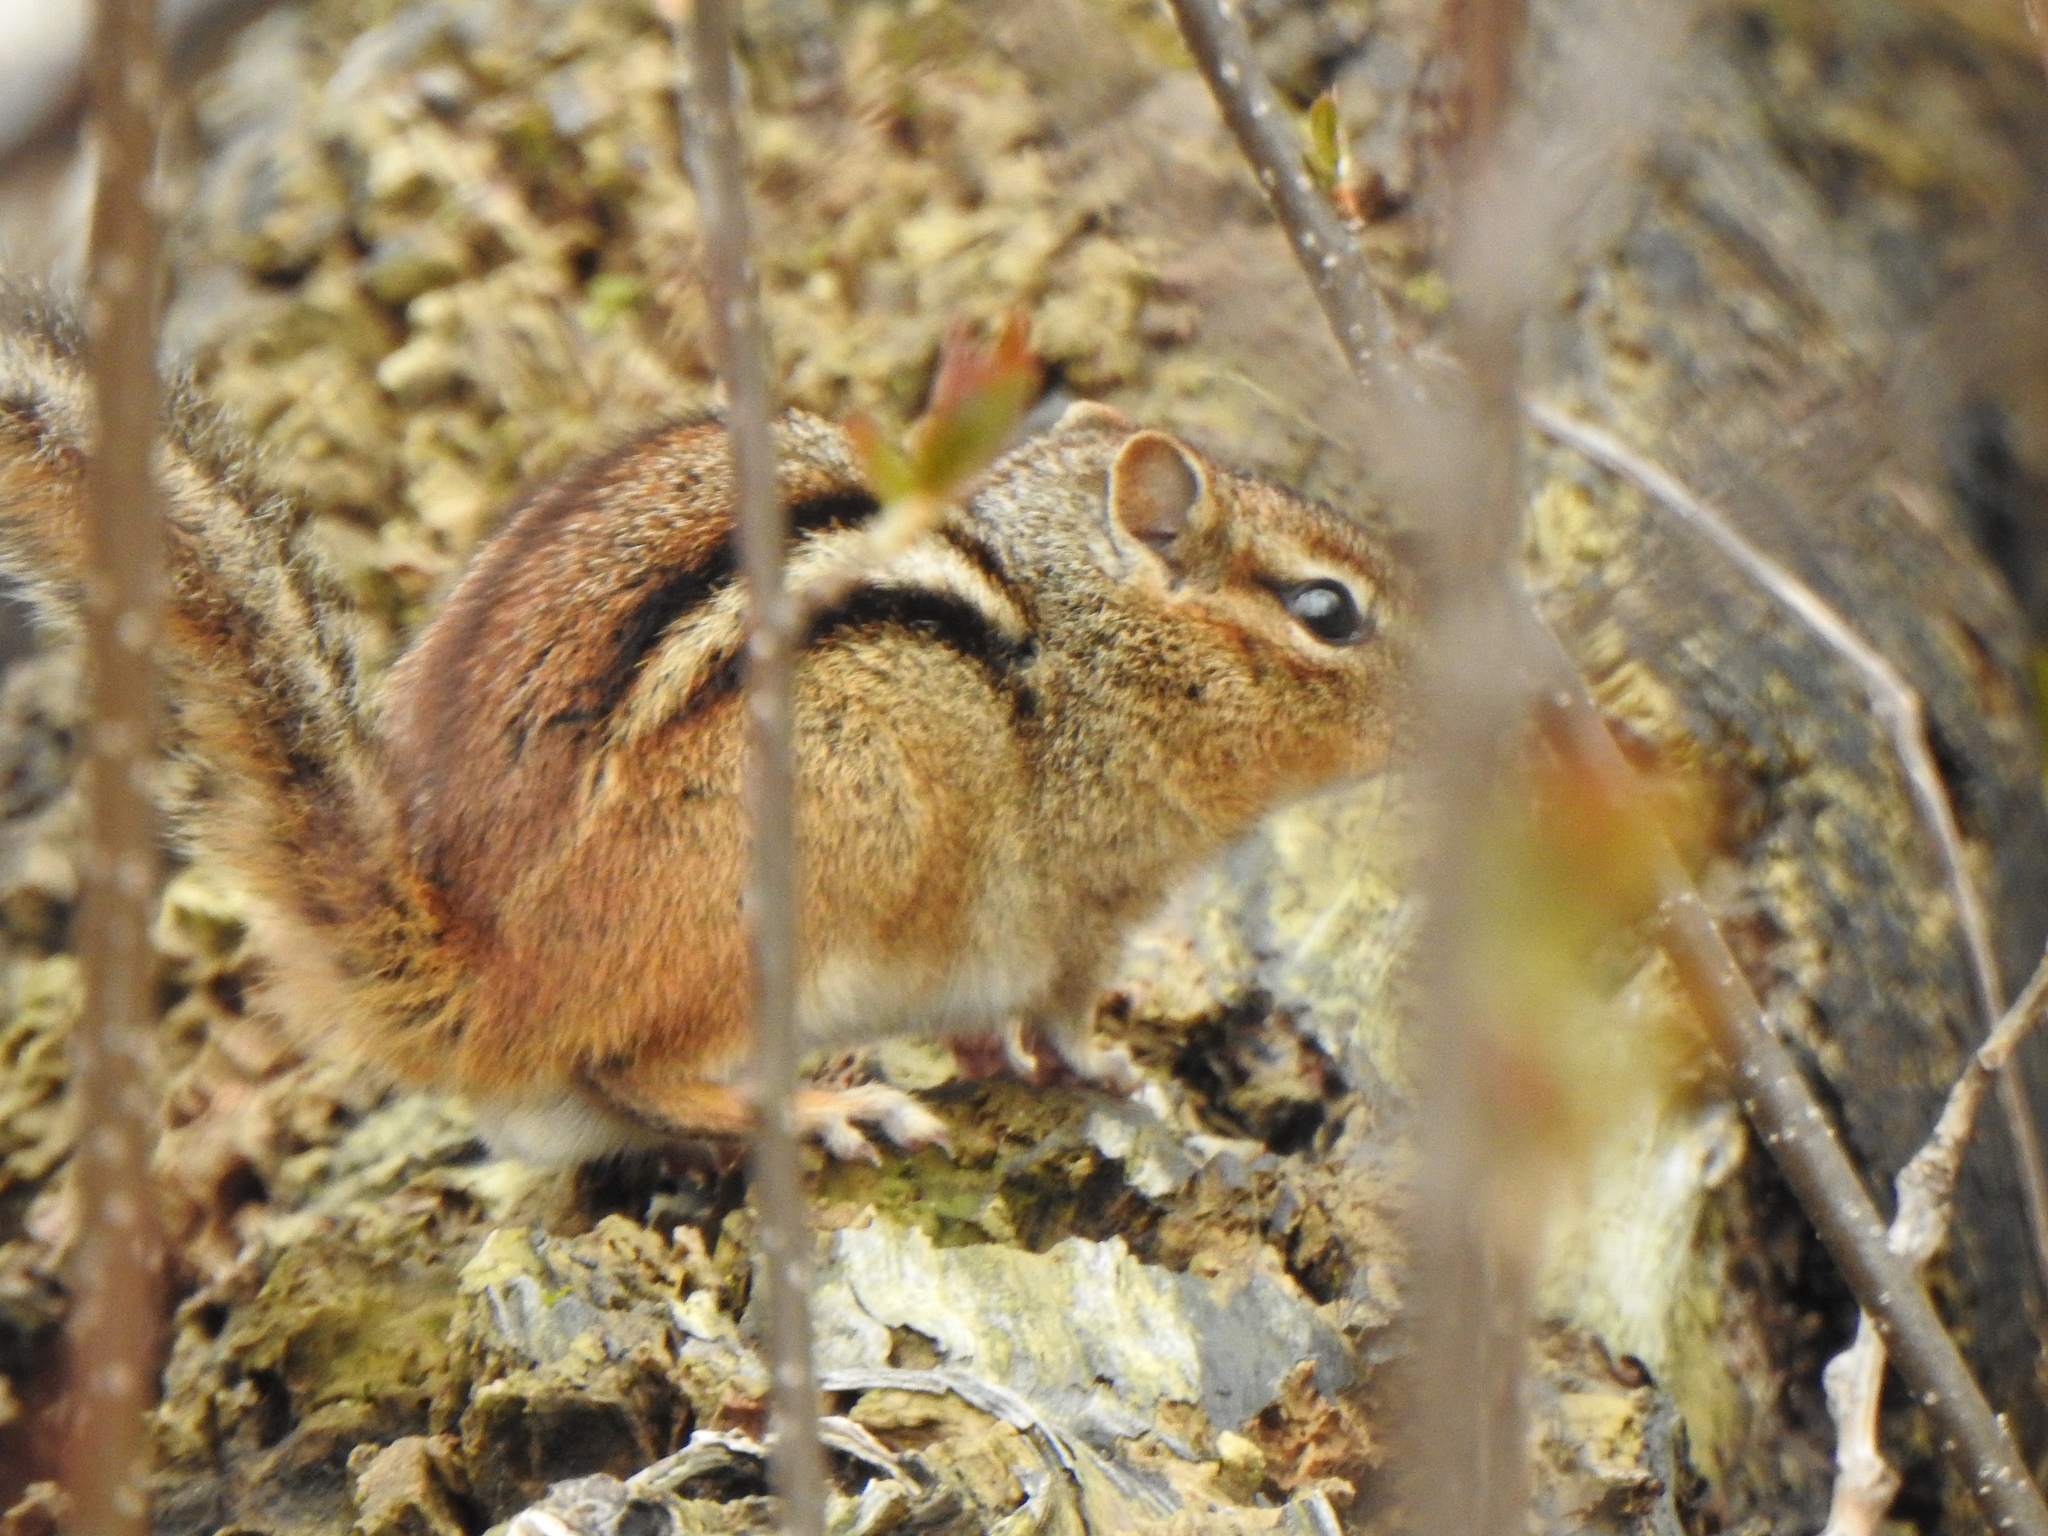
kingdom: Animalia
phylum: Chordata
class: Mammalia
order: Rodentia
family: Sciuridae
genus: Tamias
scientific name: Tamias striatus
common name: Eastern chipmunk
